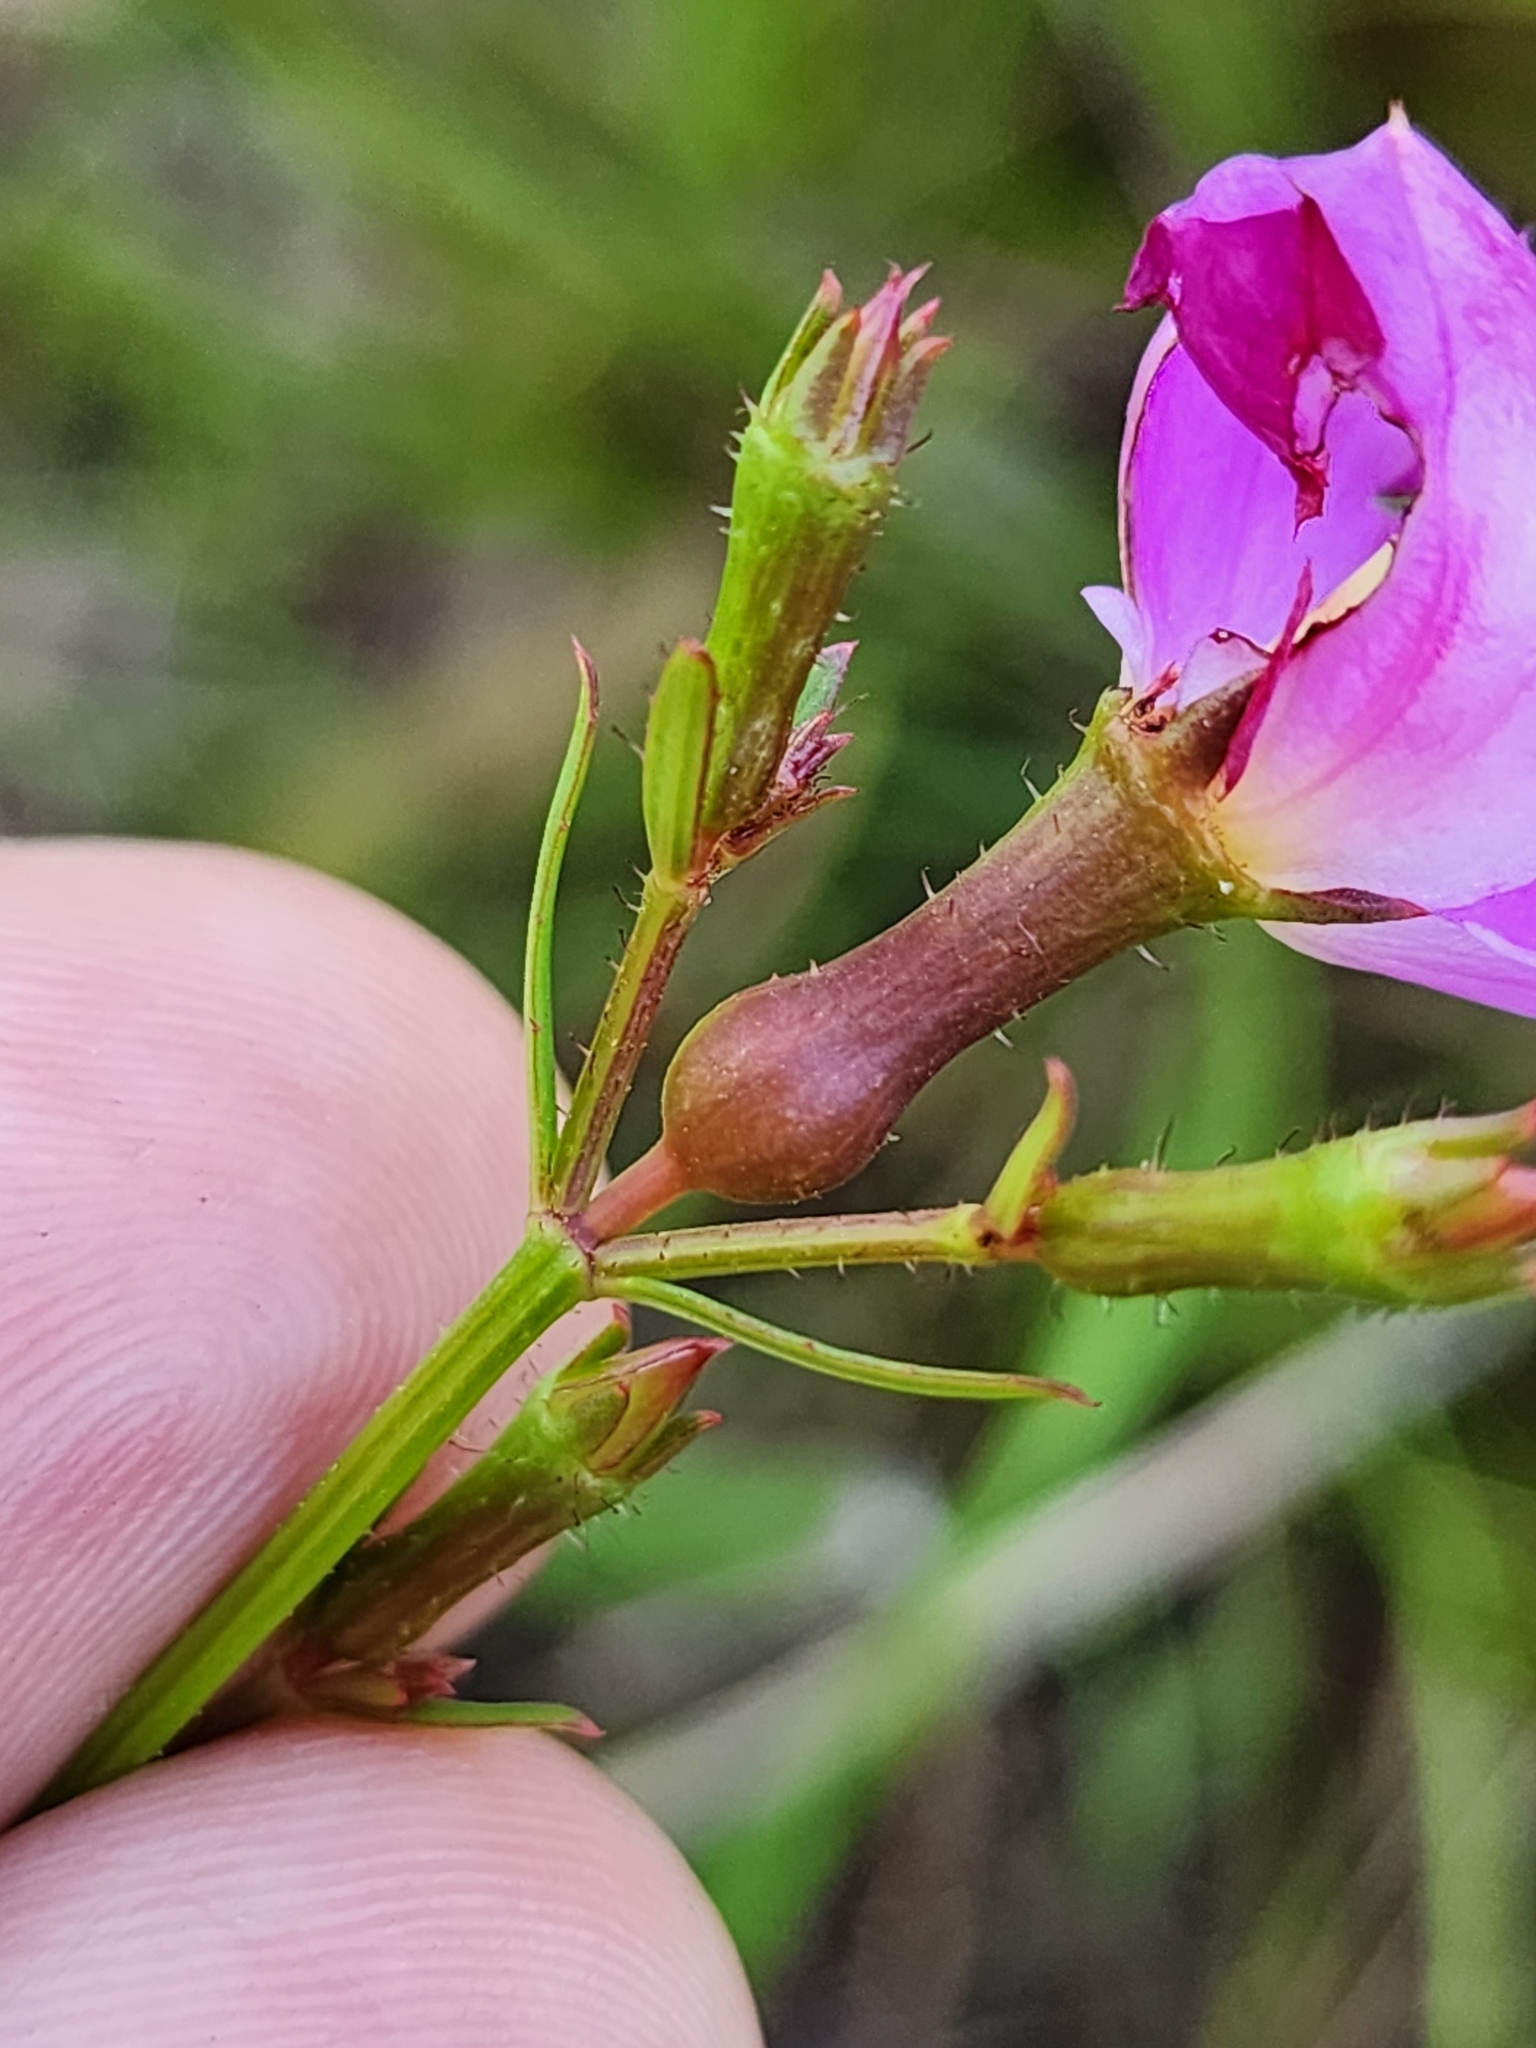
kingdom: Plantae
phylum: Tracheophyta
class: Magnoliopsida
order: Myrtales
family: Melastomataceae
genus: Rhexia
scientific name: Rhexia cubensis
